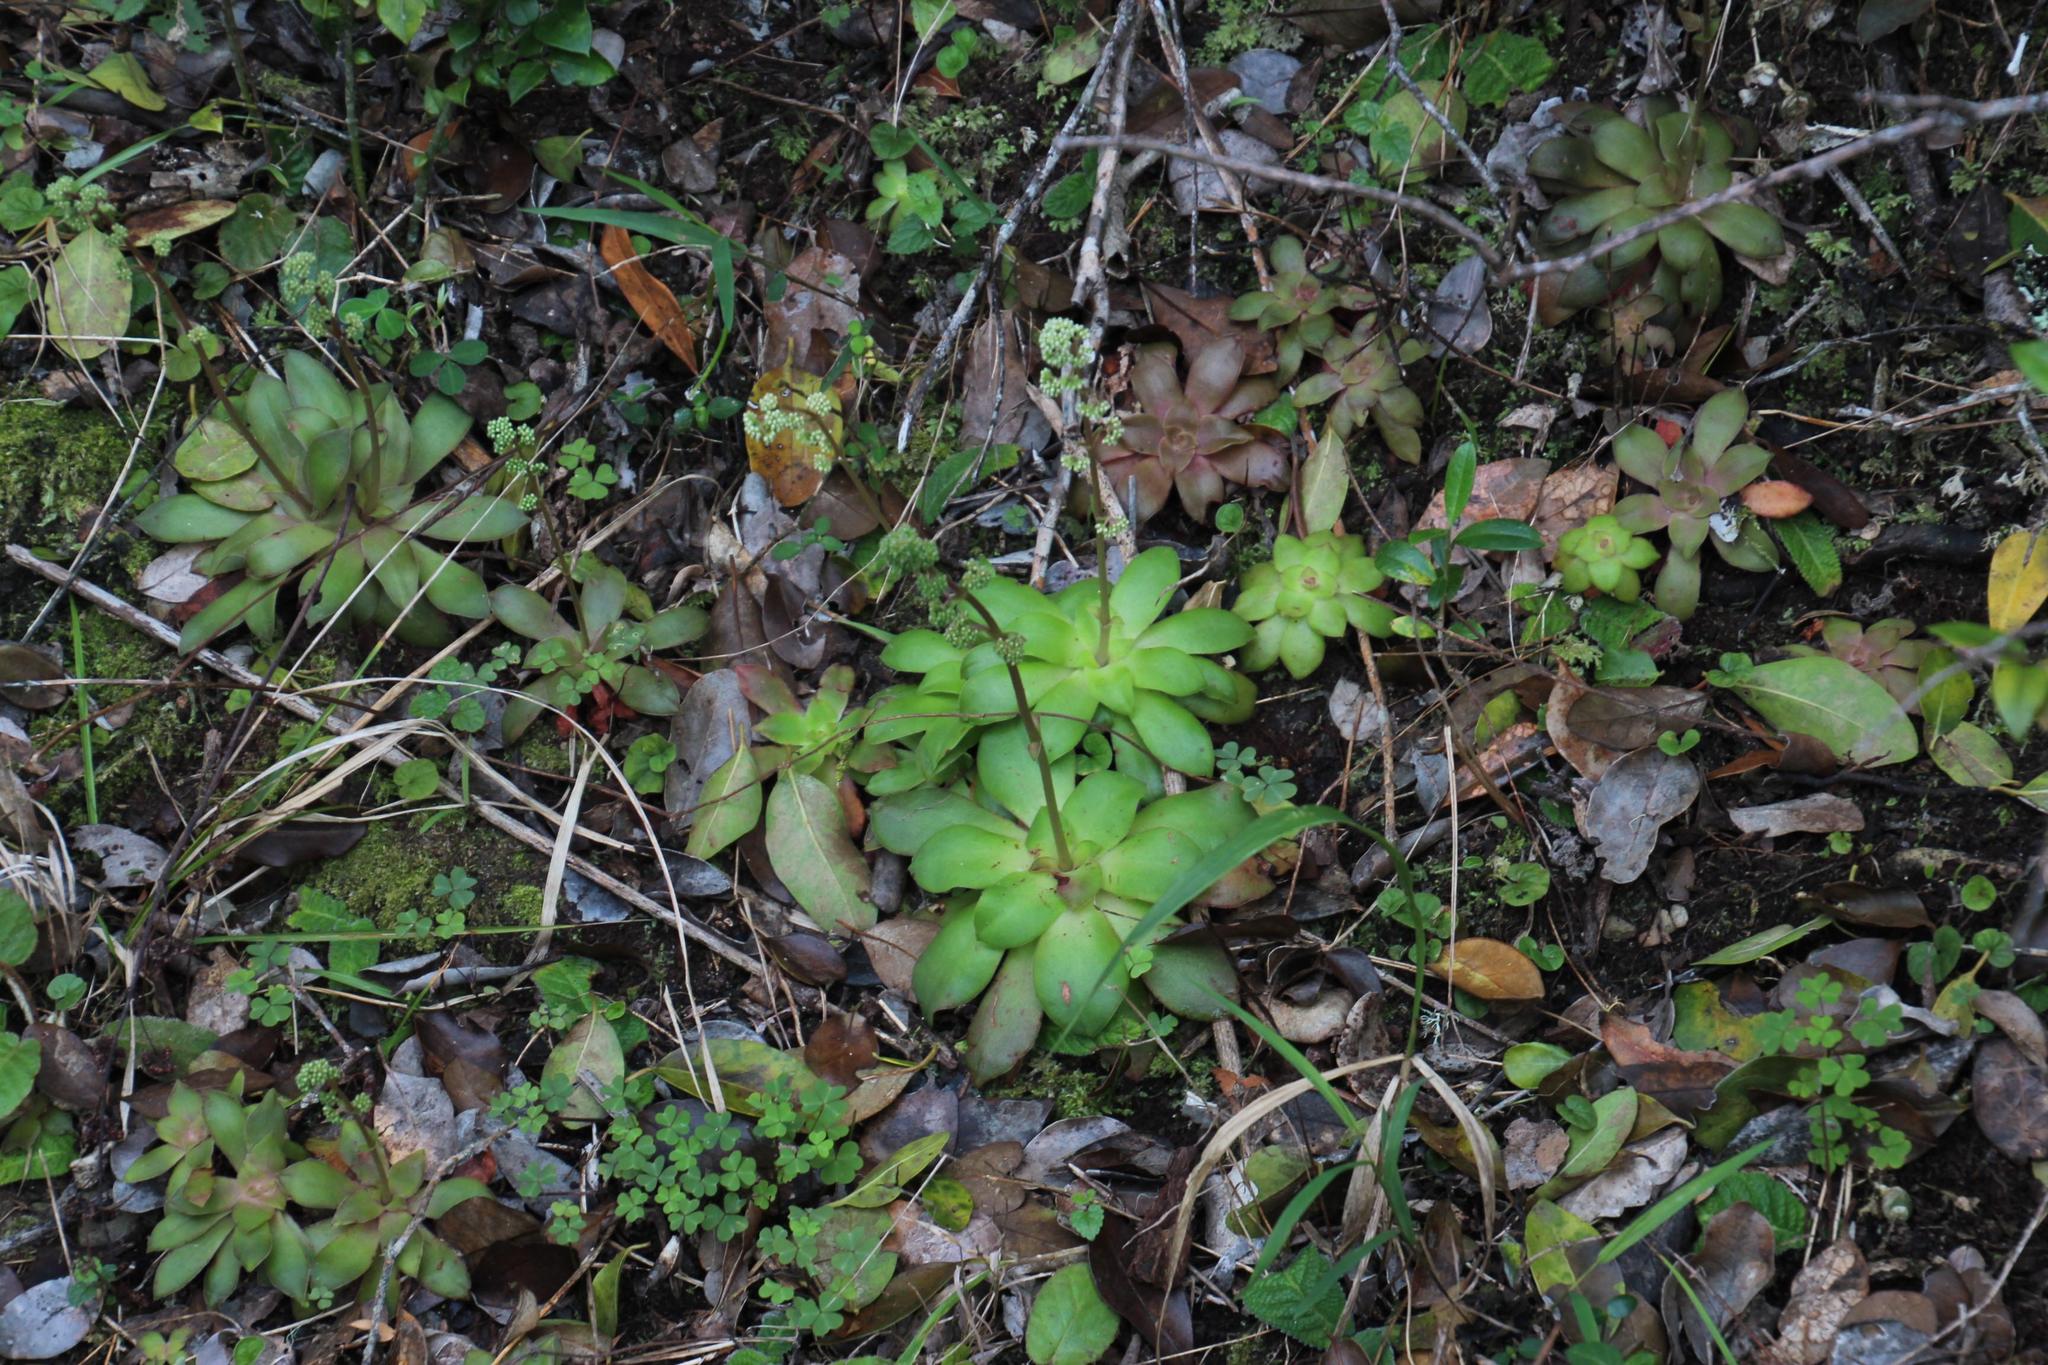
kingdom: Plantae
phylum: Tracheophyta
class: Magnoliopsida
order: Saxifragales
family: Crassulaceae
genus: Crassula
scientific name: Crassula orbicularis
